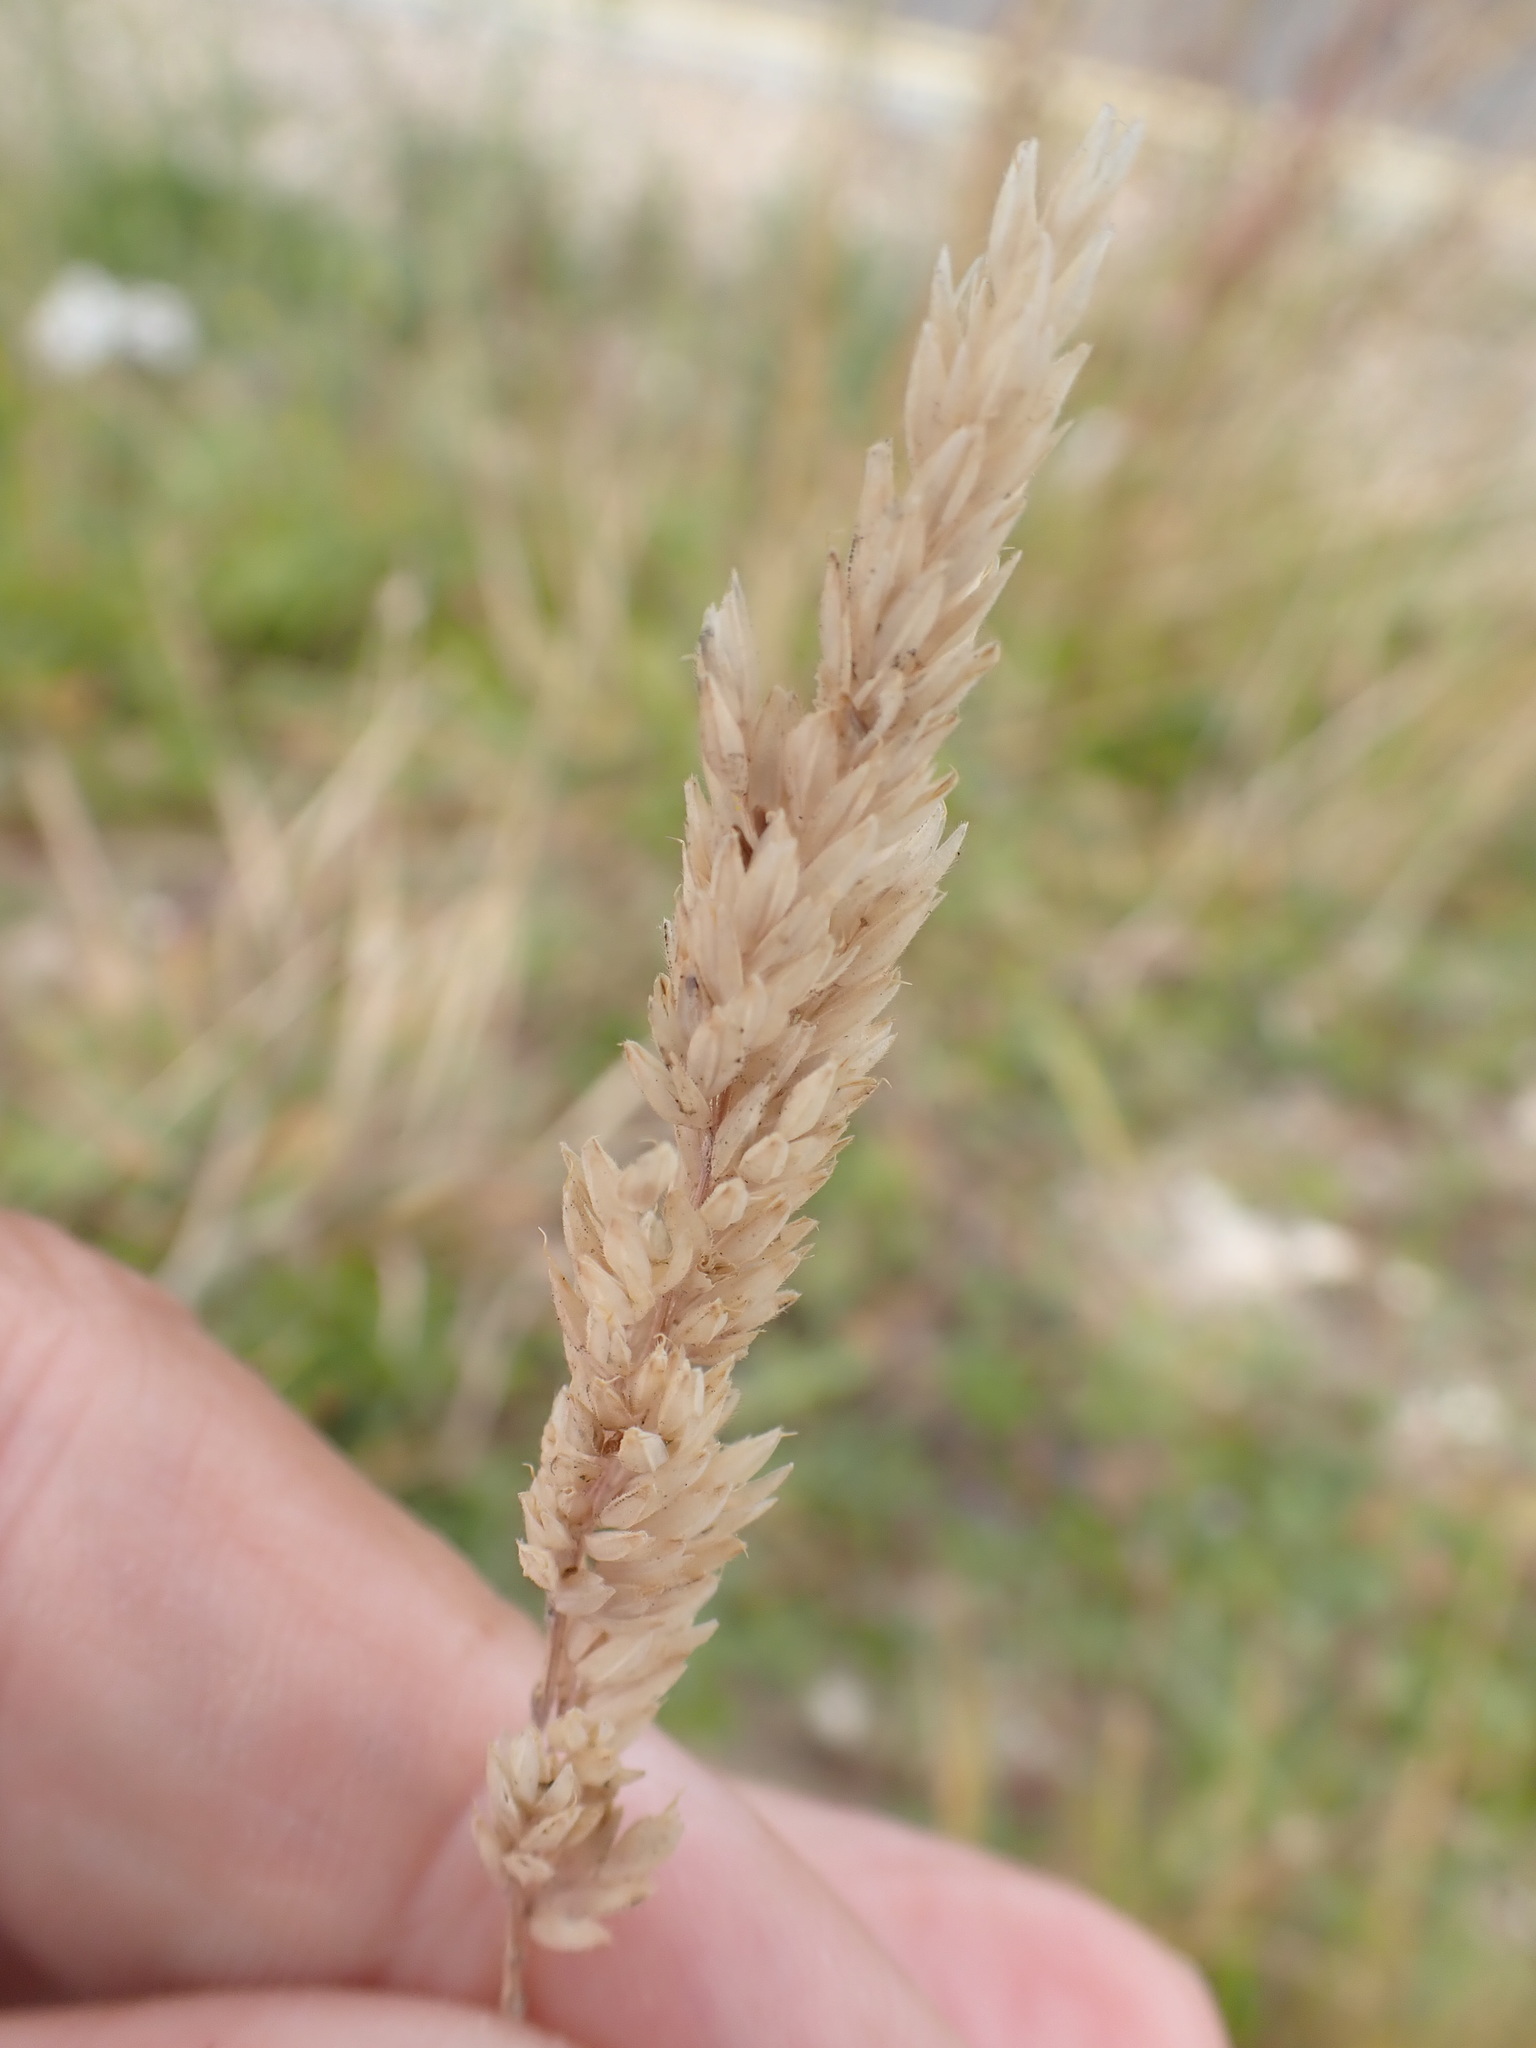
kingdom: Plantae
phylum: Tracheophyta
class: Liliopsida
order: Poales
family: Poaceae
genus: Holcus
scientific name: Holcus lanatus
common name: Yorkshire-fog
